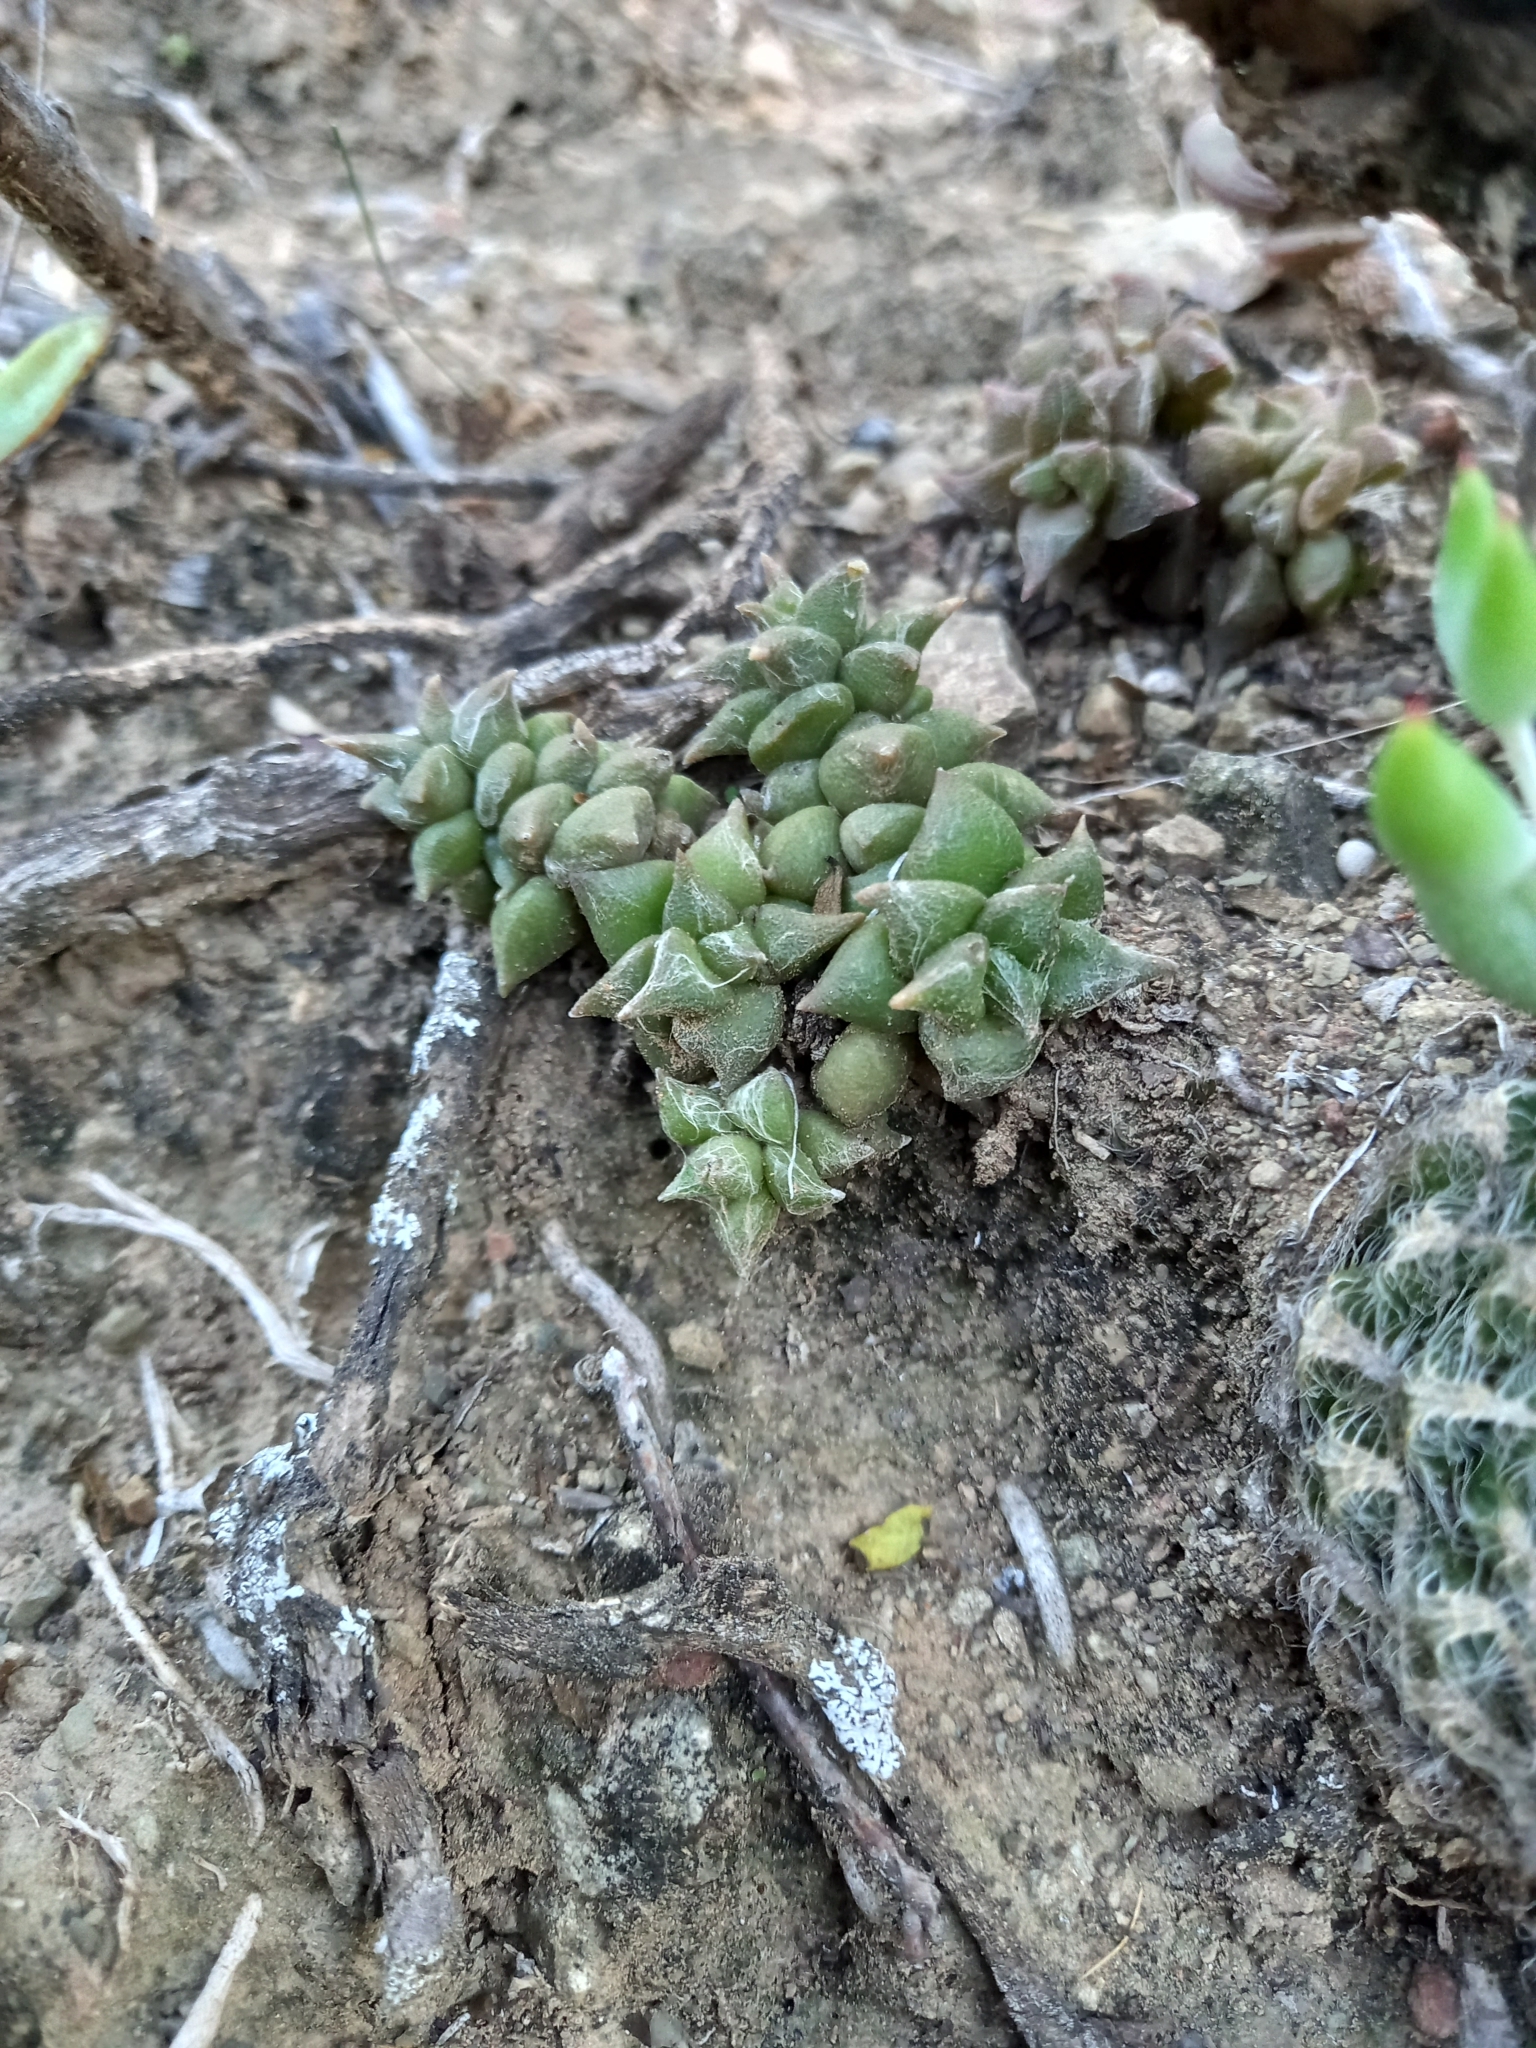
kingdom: Plantae
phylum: Tracheophyta
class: Magnoliopsida
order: Caryophyllales
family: Anacampserotaceae
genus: Anacampseros
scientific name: Anacampseros arachnoides
